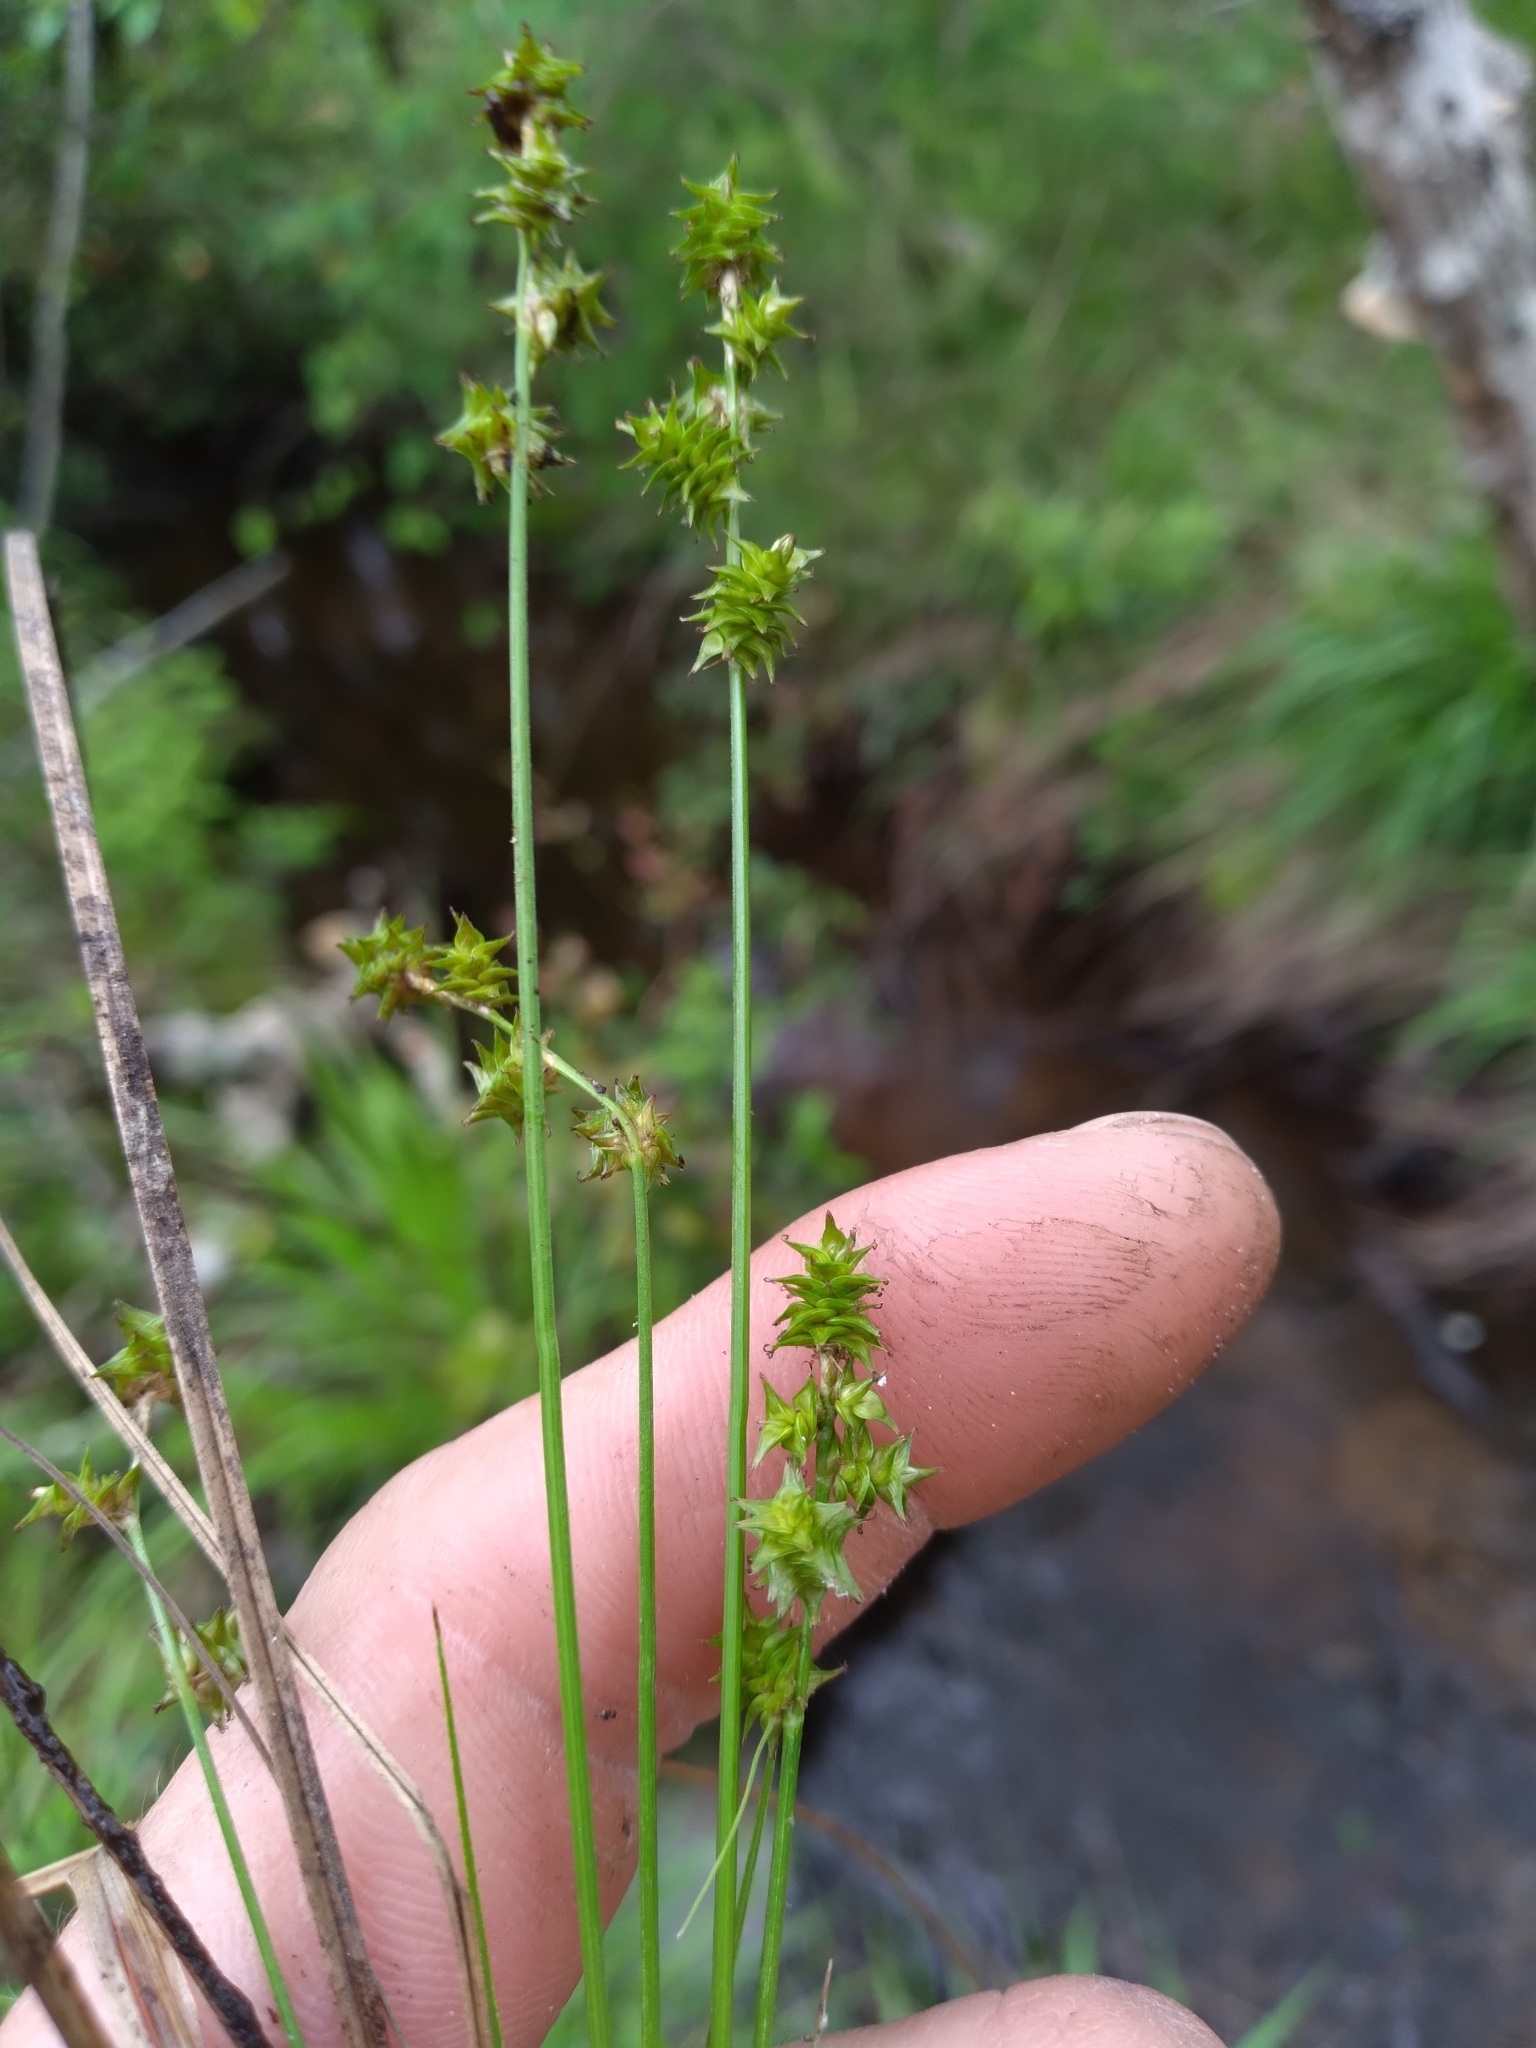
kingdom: Plantae
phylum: Tracheophyta
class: Liliopsida
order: Poales
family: Cyperaceae
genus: Carex
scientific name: Carex atlantica
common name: Atlantic sedge
